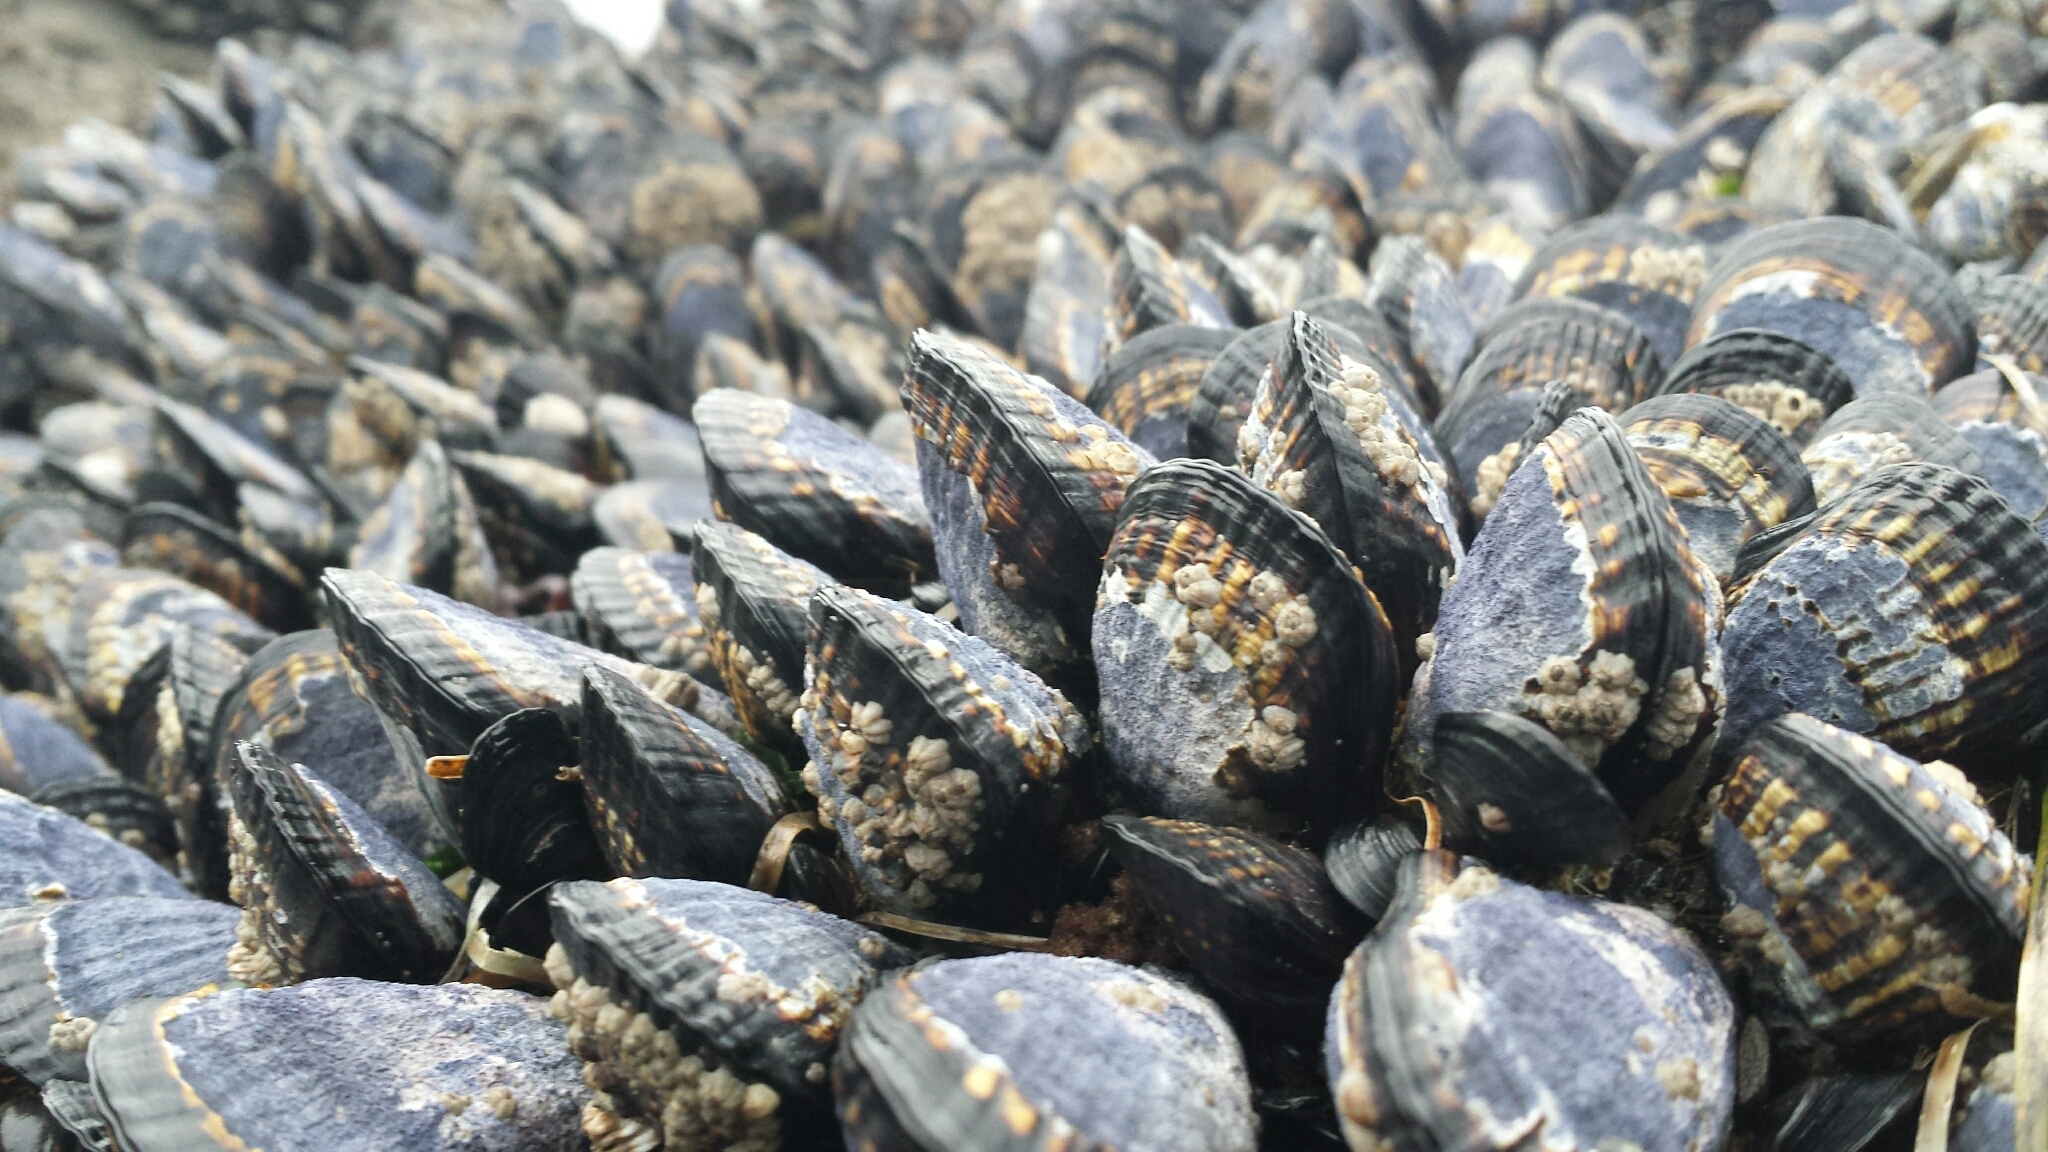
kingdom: Animalia
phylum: Mollusca
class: Bivalvia
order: Mytilida
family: Mytilidae
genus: Mytilus
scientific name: Mytilus californianus
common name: California mussel
